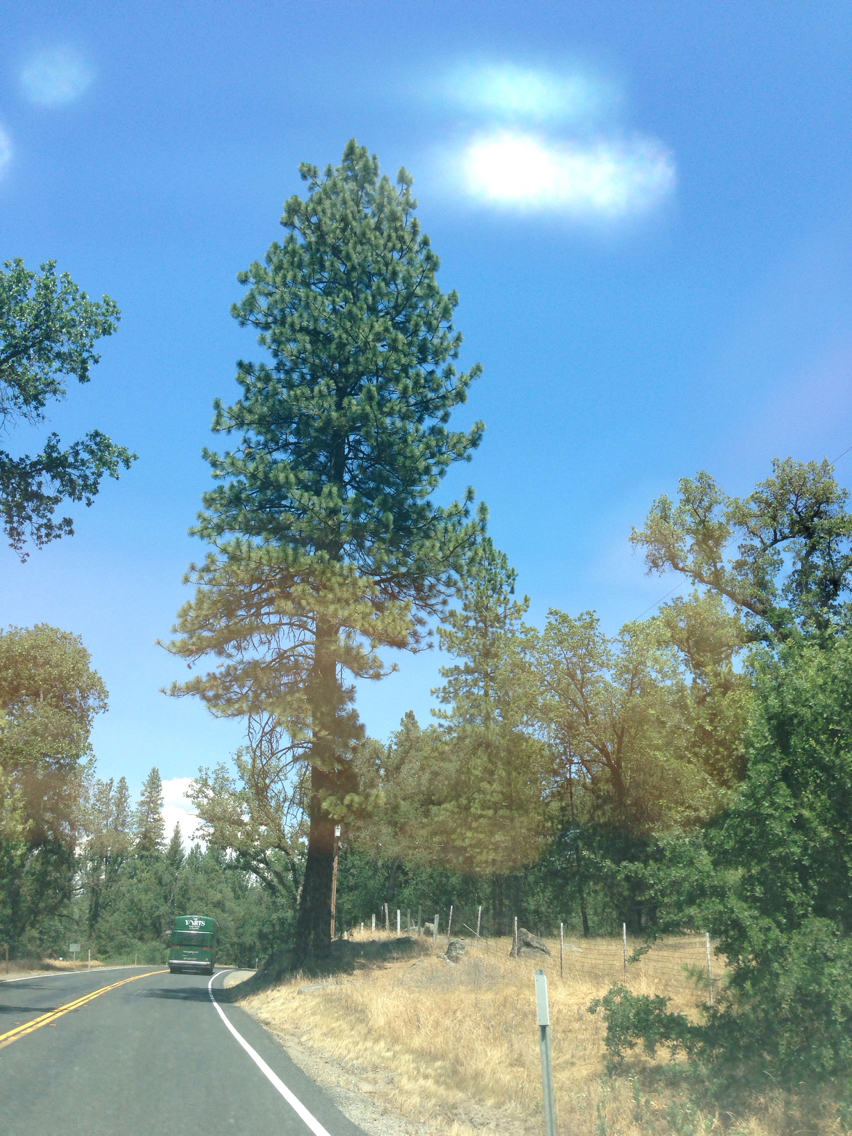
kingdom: Plantae
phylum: Tracheophyta
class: Pinopsida
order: Pinales
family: Pinaceae
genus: Pinus
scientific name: Pinus ponderosa
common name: Western yellow-pine
